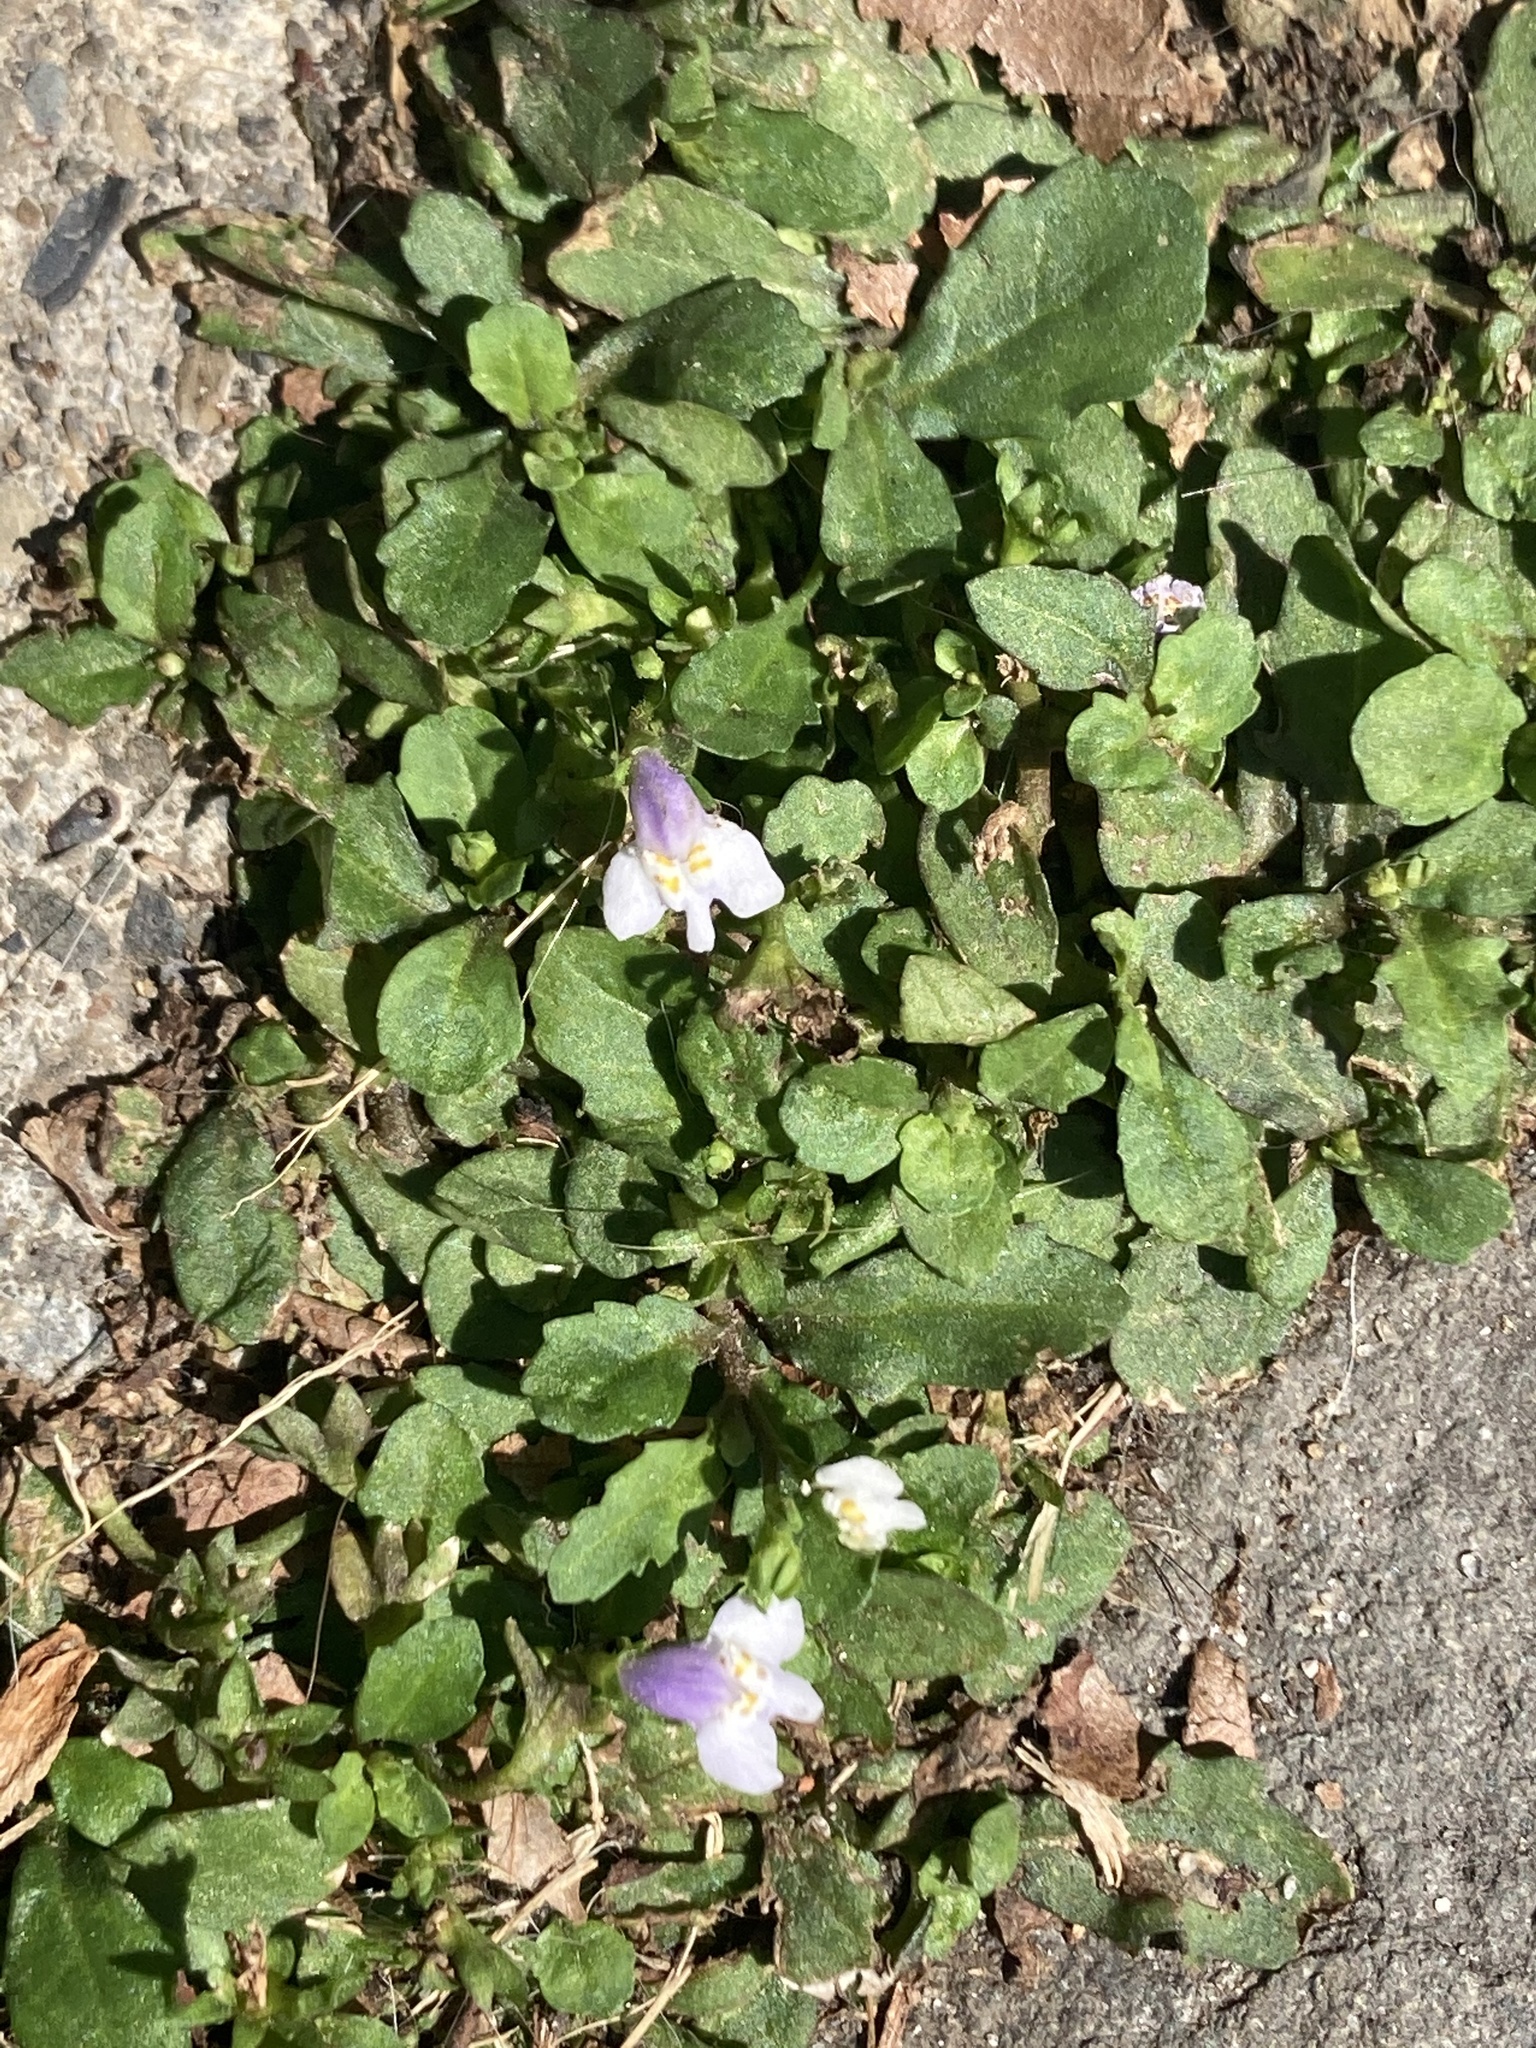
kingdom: Plantae
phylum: Tracheophyta
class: Magnoliopsida
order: Lamiales
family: Mazaceae
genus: Mazus
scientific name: Mazus pumilus
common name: Japanese mazus
